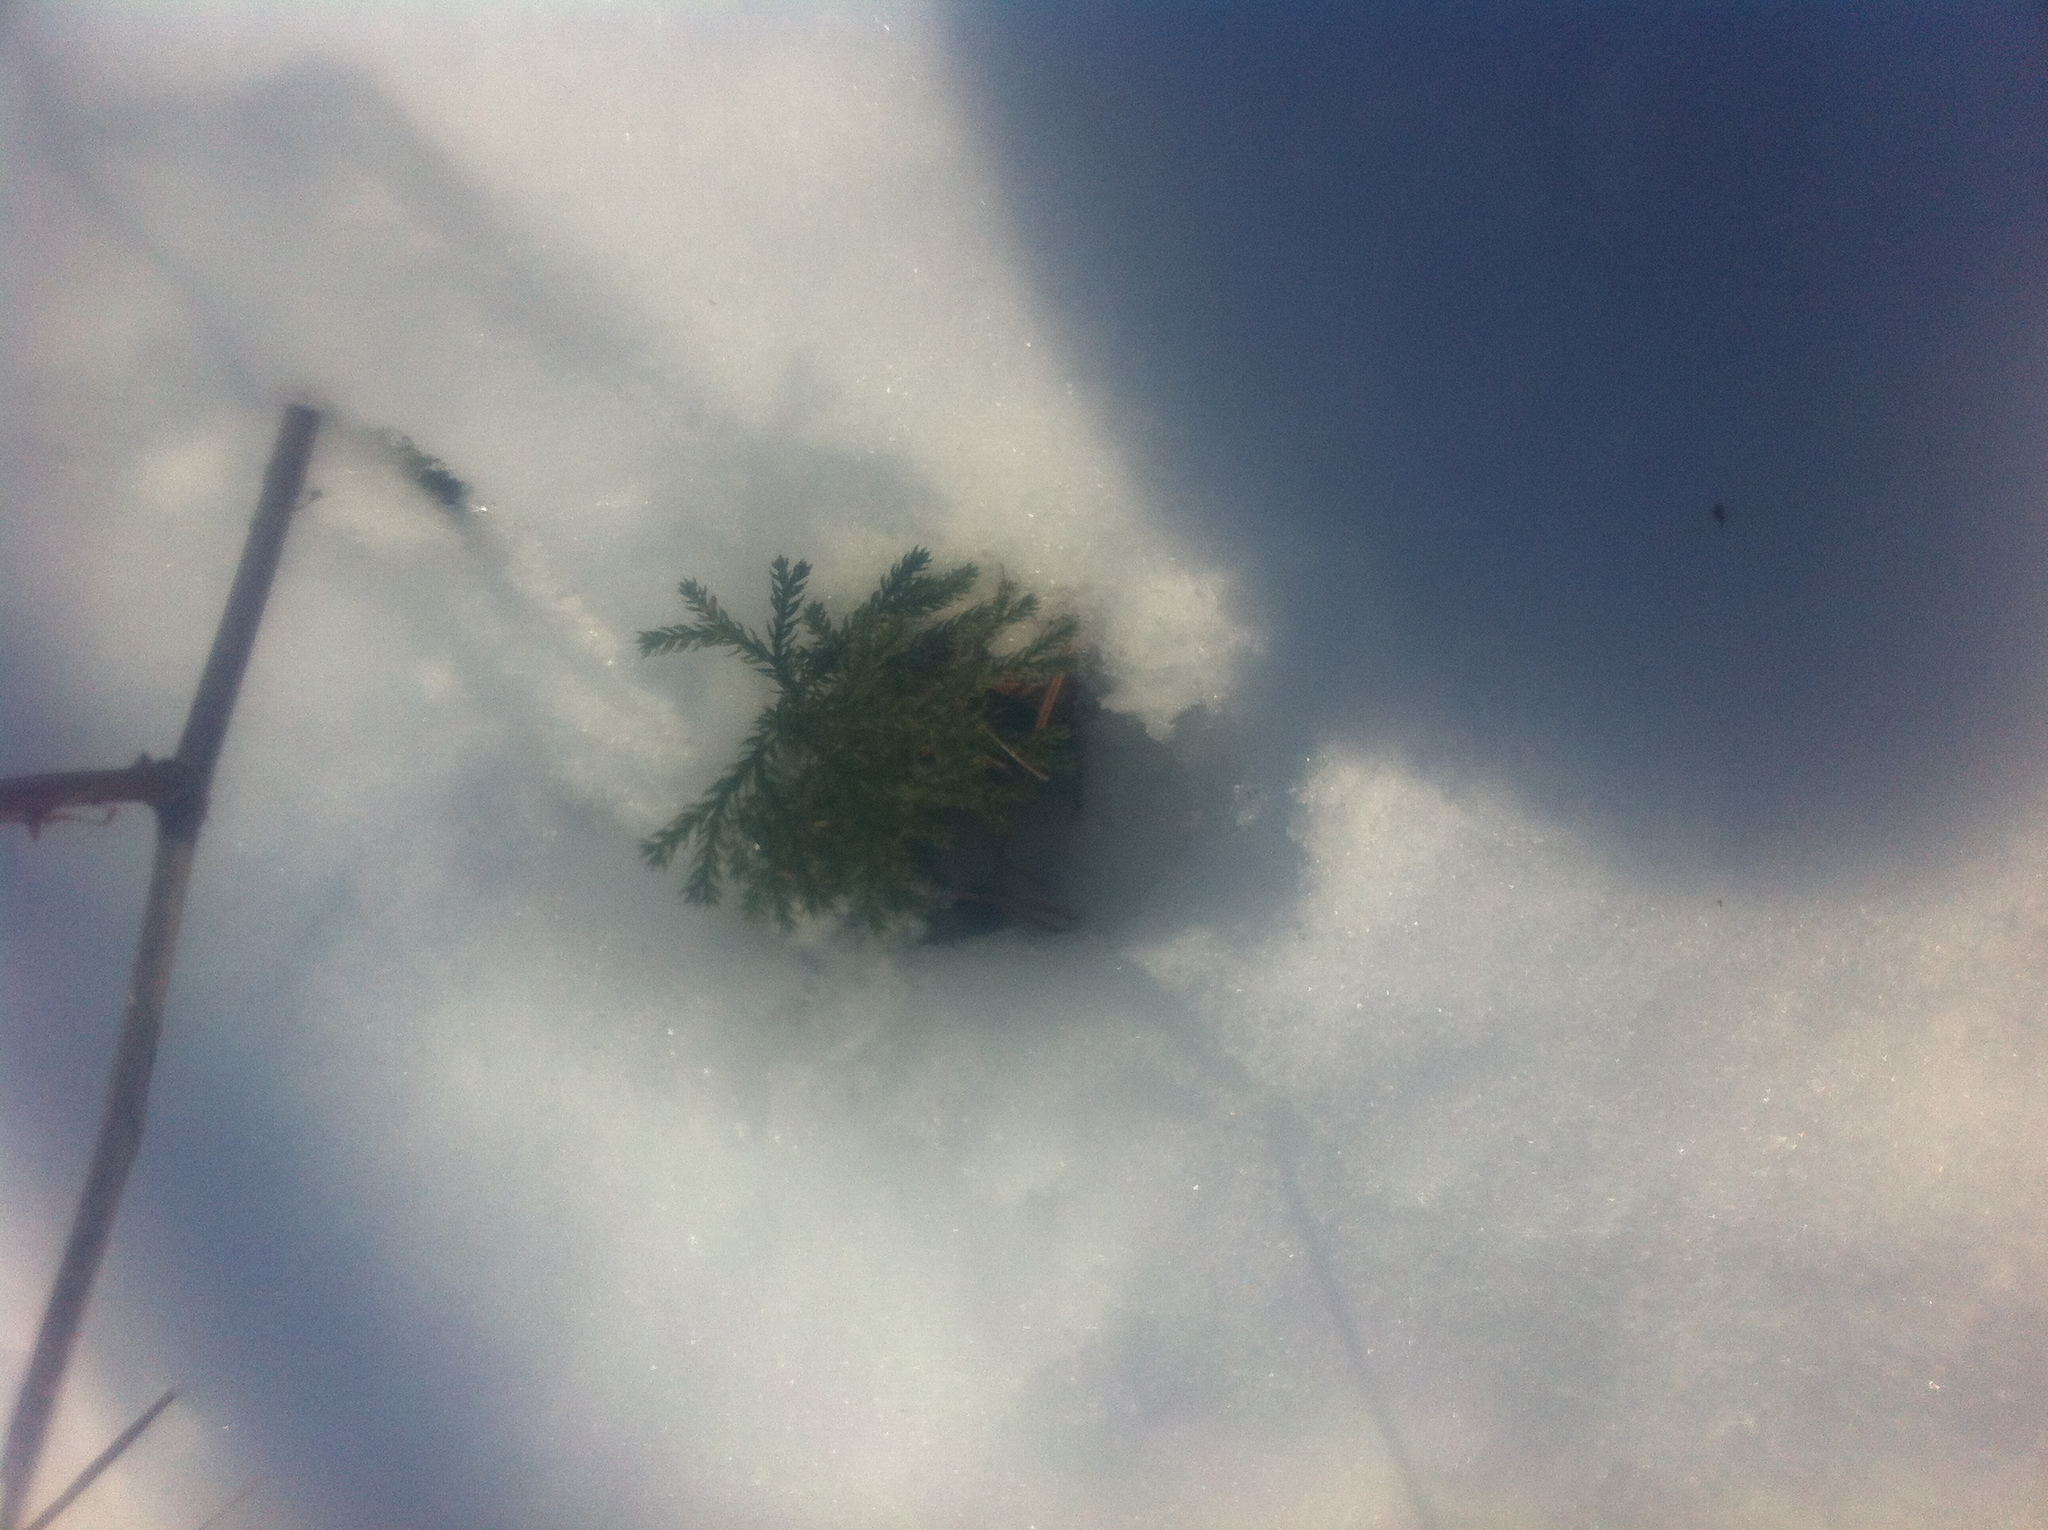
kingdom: Plantae
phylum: Tracheophyta
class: Lycopodiopsida
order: Lycopodiales
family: Lycopodiaceae
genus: Dendrolycopodium
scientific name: Dendrolycopodium
